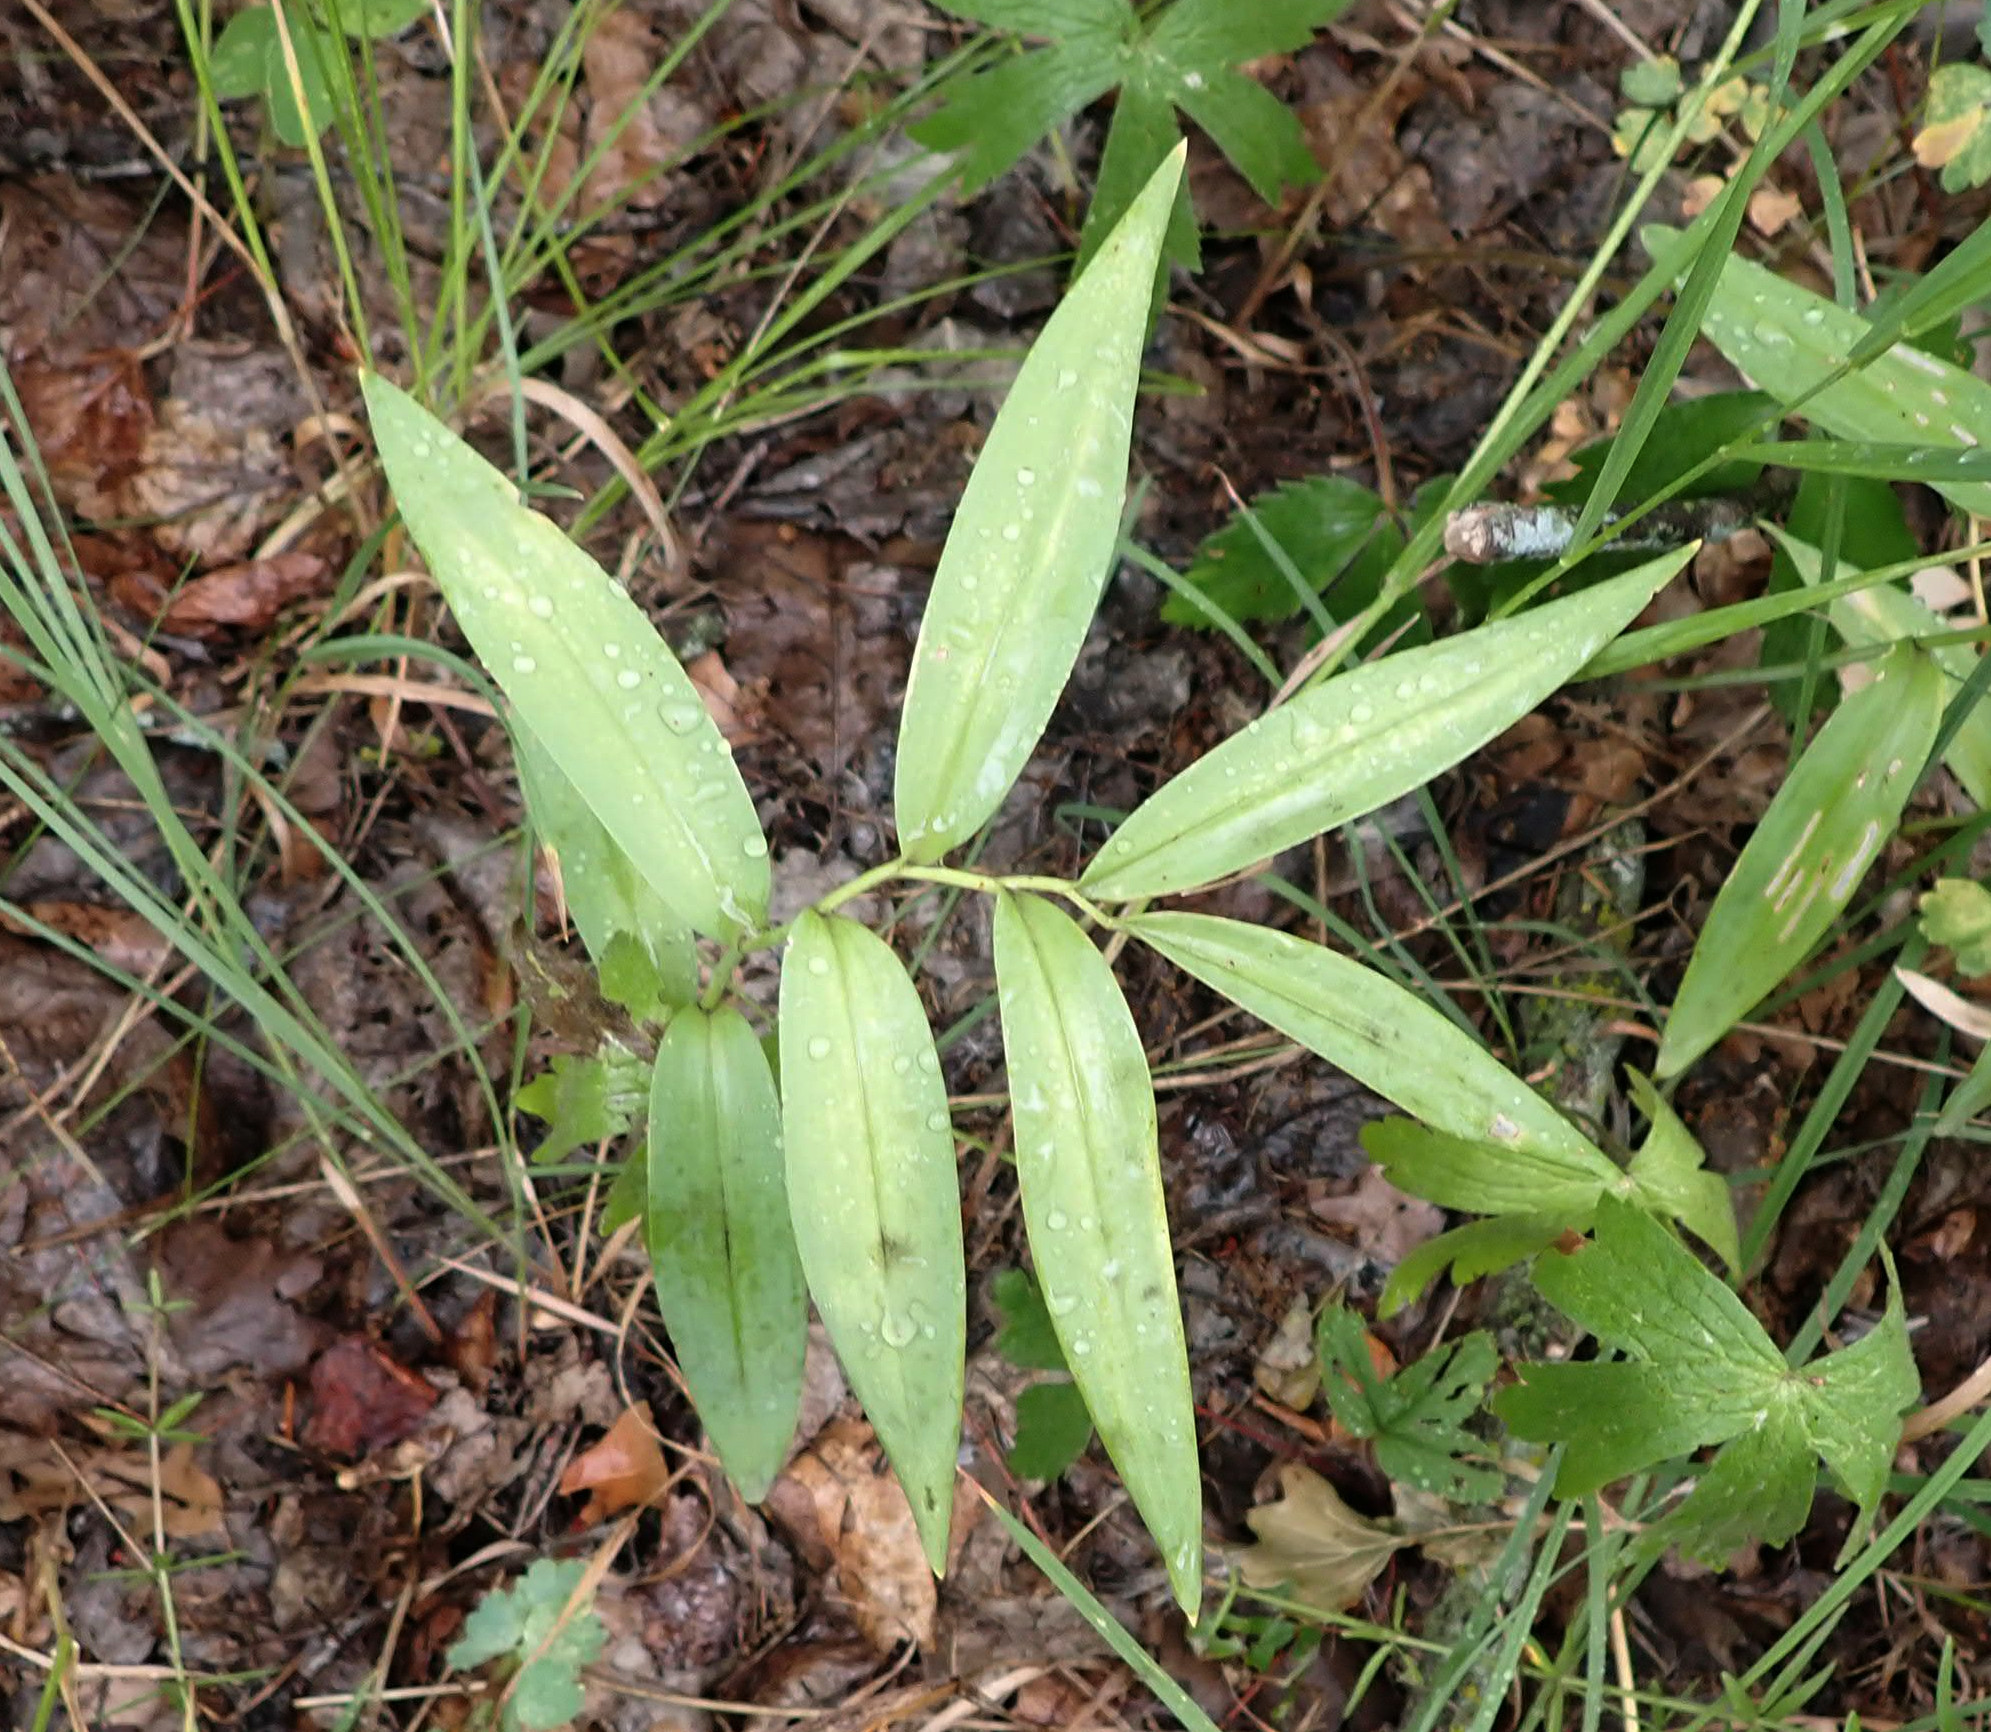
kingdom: Plantae
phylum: Tracheophyta
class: Liliopsida
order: Asparagales
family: Asparagaceae
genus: Maianthemum
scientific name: Maianthemum stellatum
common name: Little false solomon's seal
